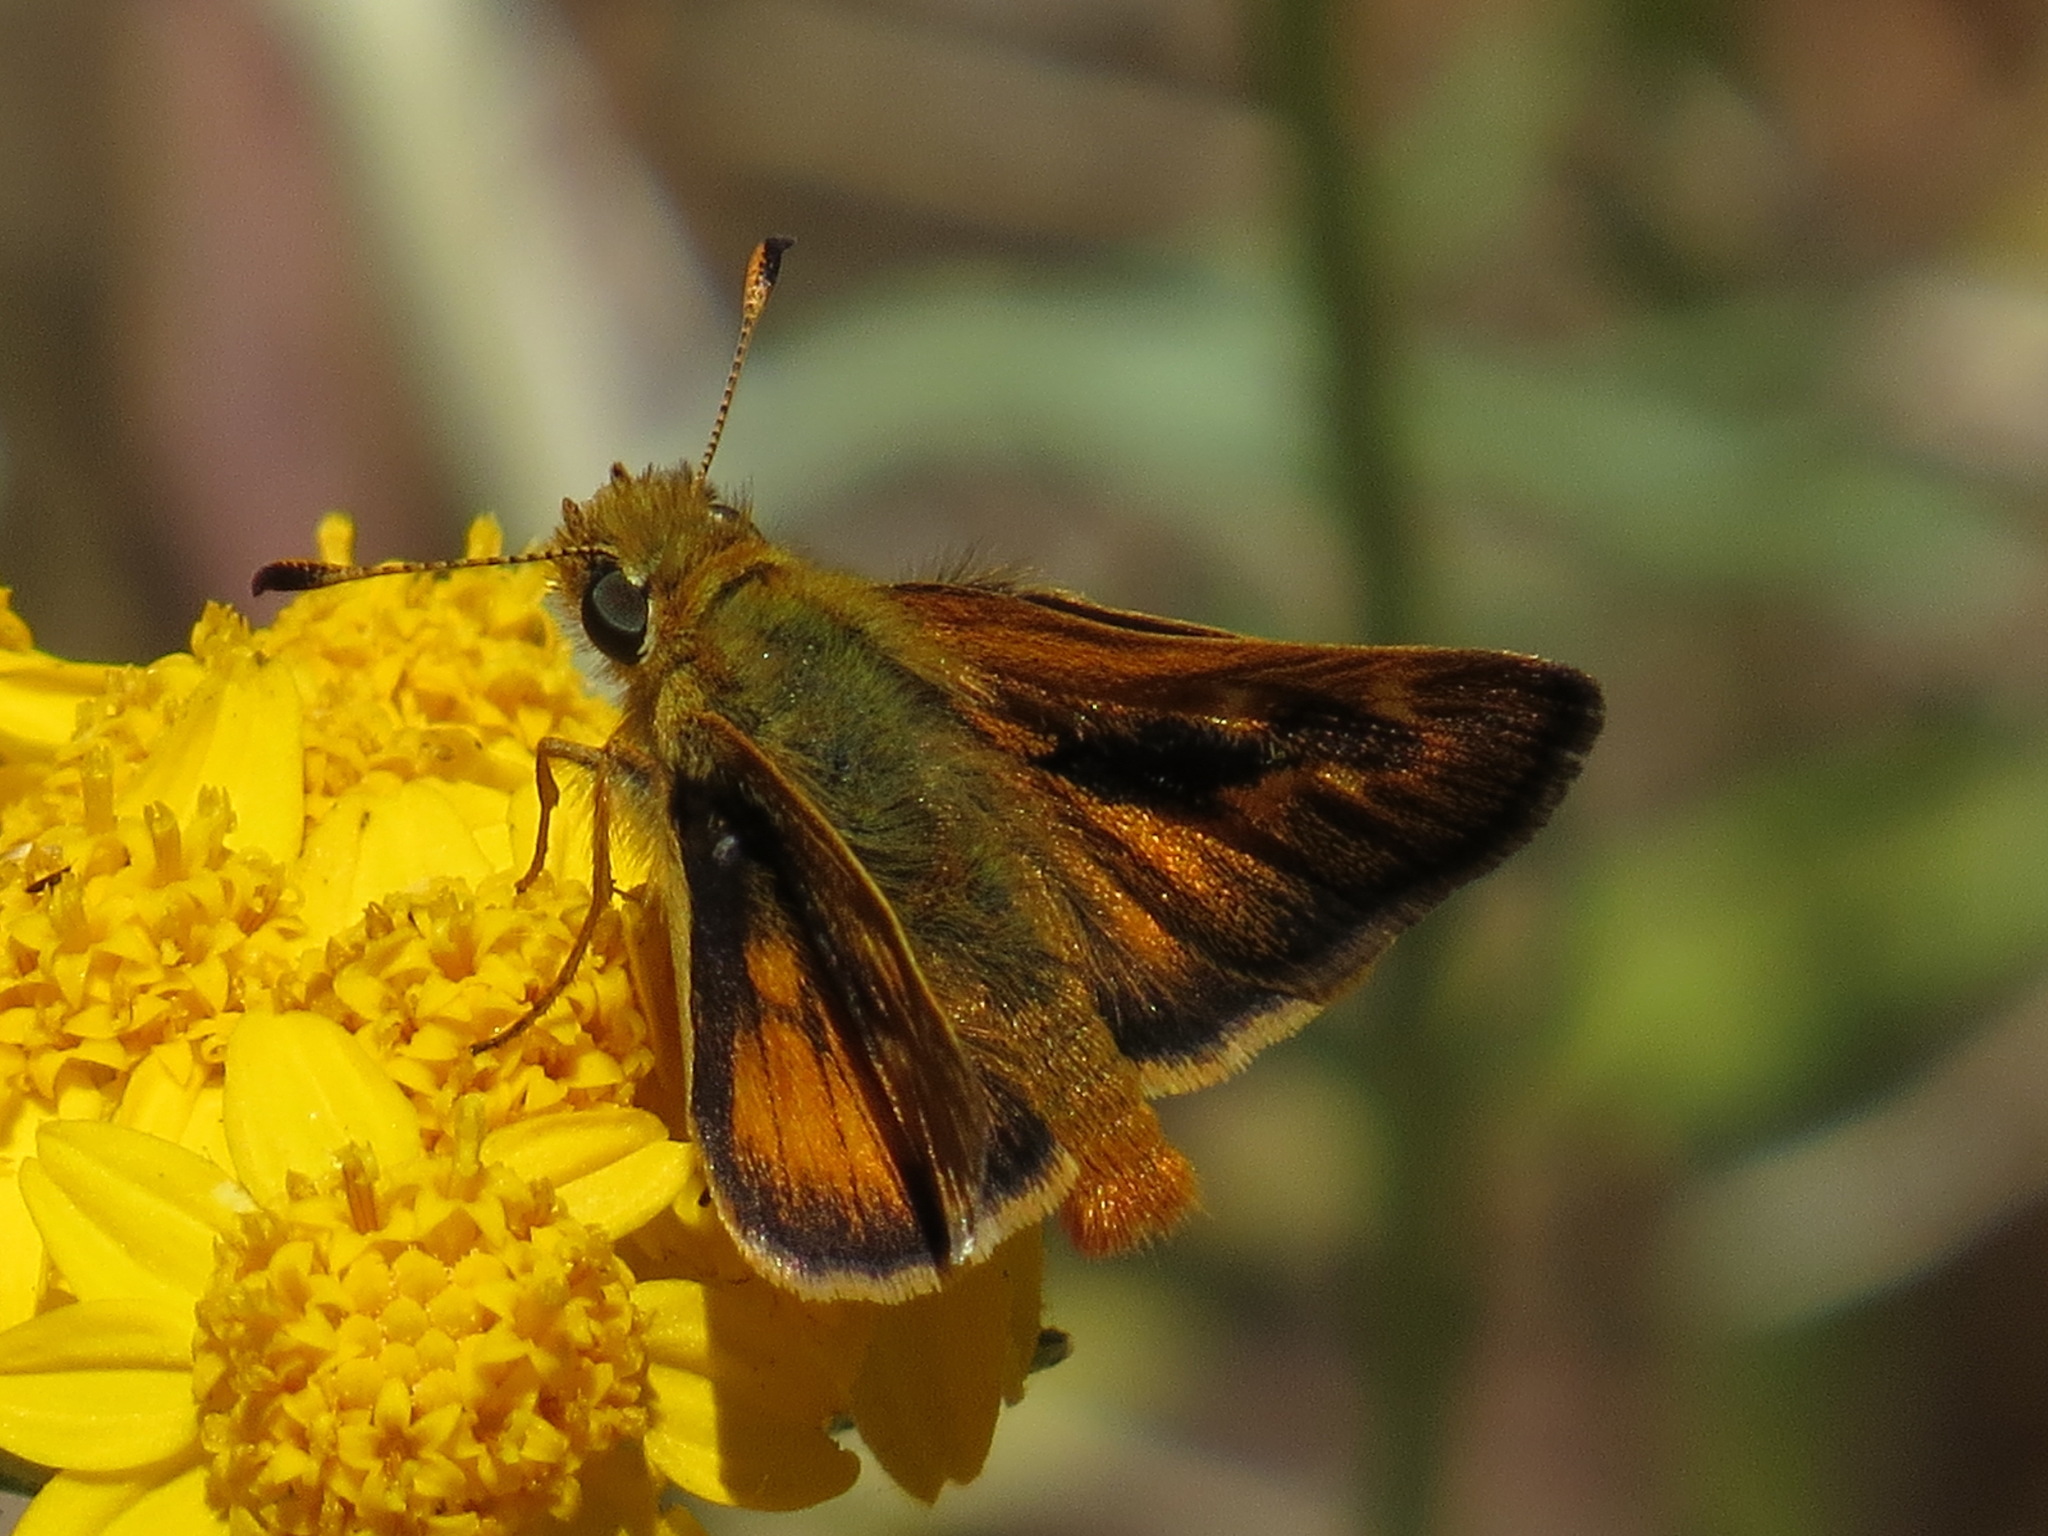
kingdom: Animalia
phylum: Arthropoda
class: Insecta
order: Lepidoptera
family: Hesperiidae
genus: Ochlodes
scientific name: Ochlodes agricola
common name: Rural skipper
